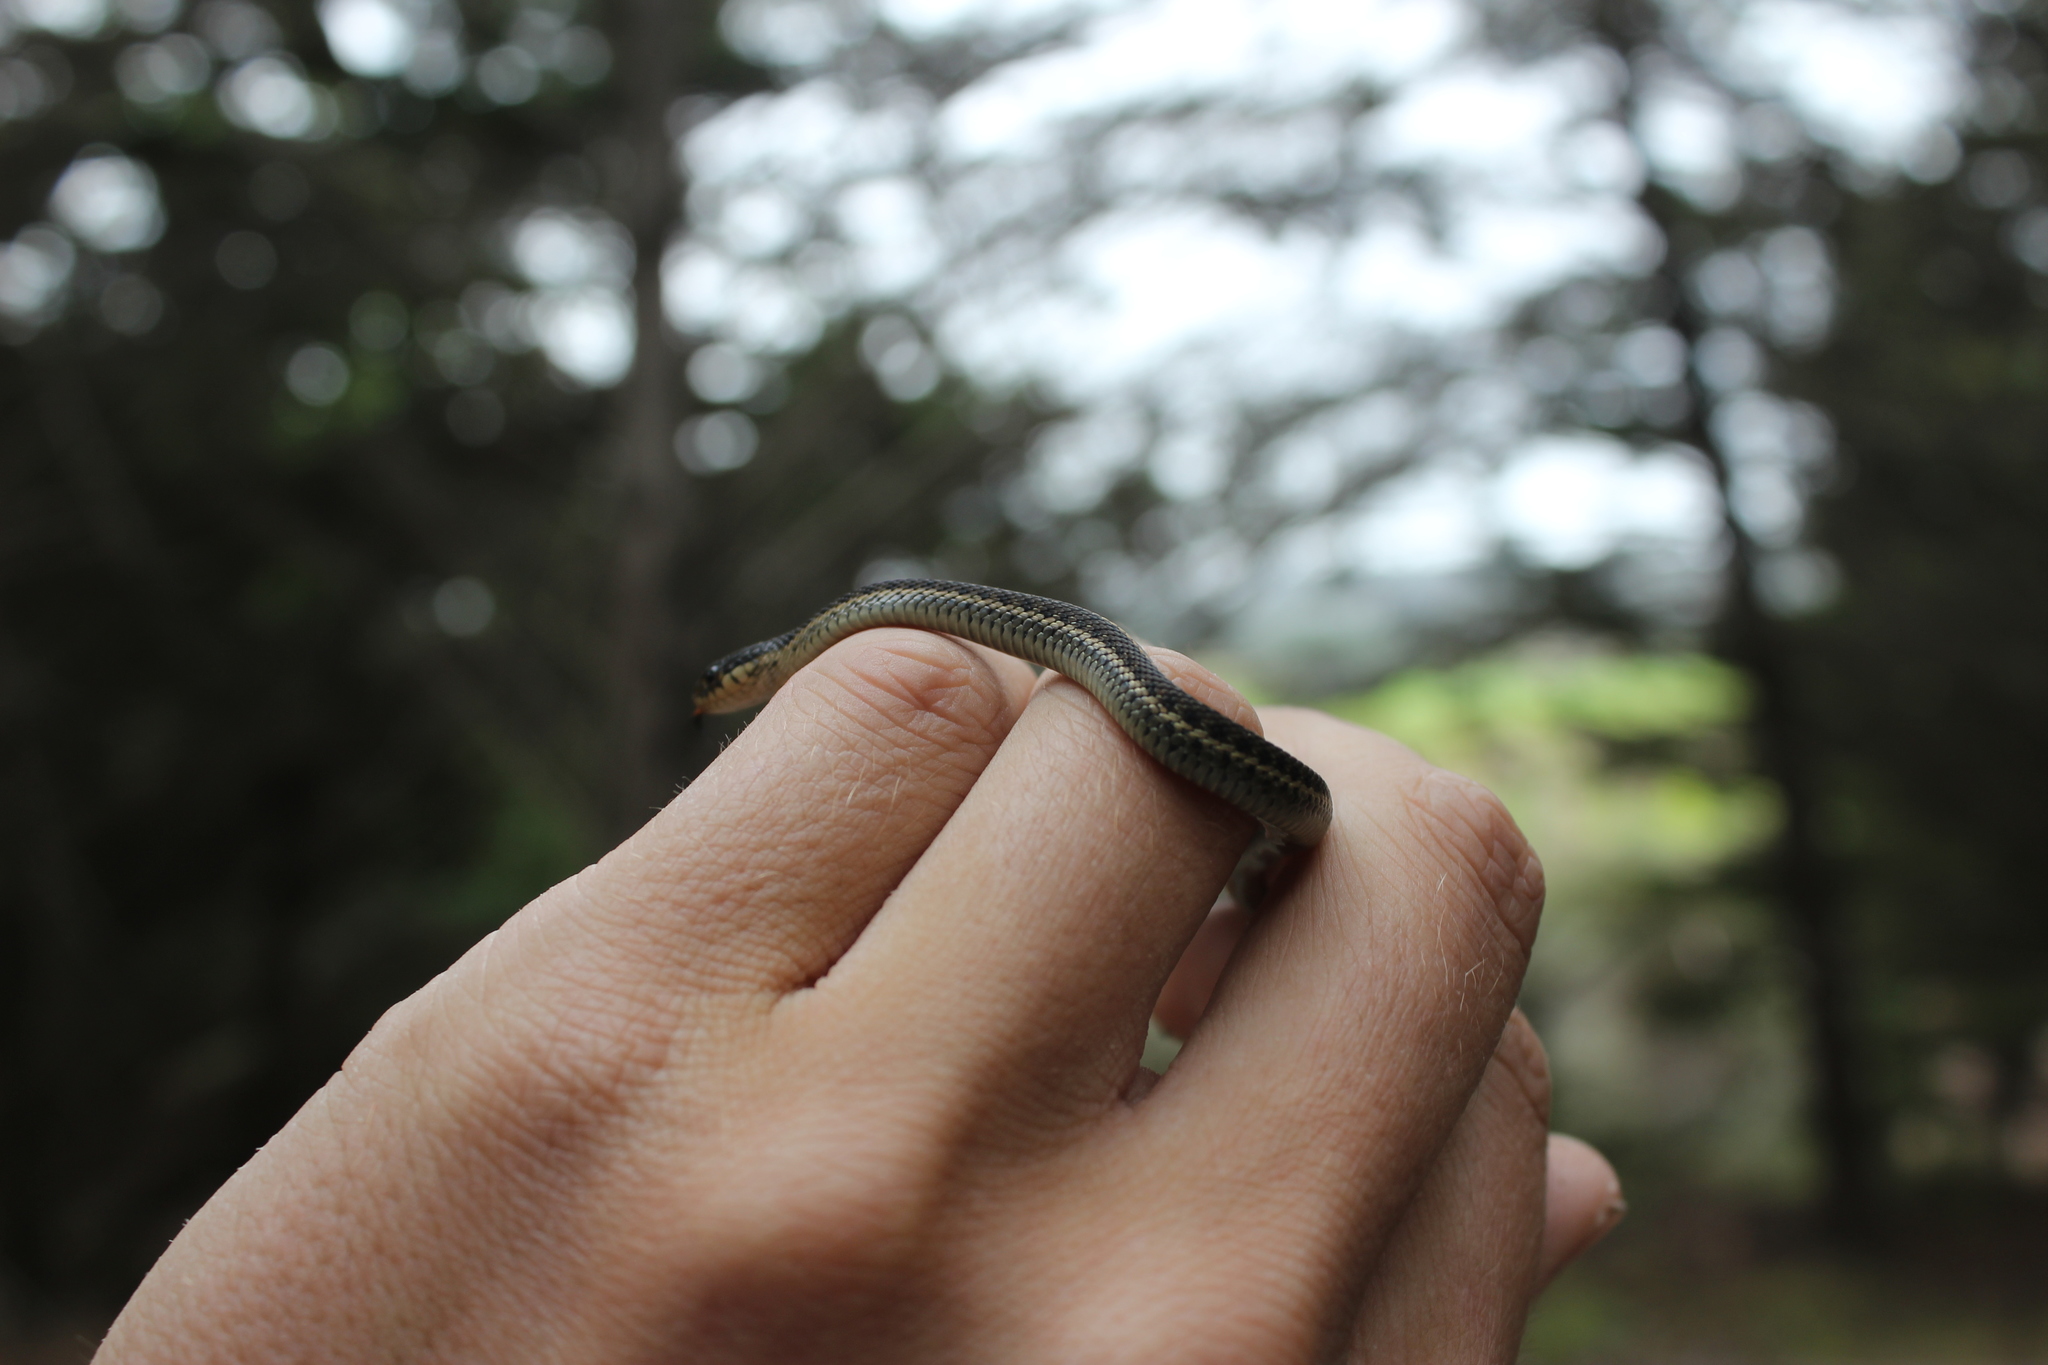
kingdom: Animalia
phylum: Chordata
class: Squamata
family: Colubridae
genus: Thamnophis
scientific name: Thamnophis elegans
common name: Western terrestrial garter snake
